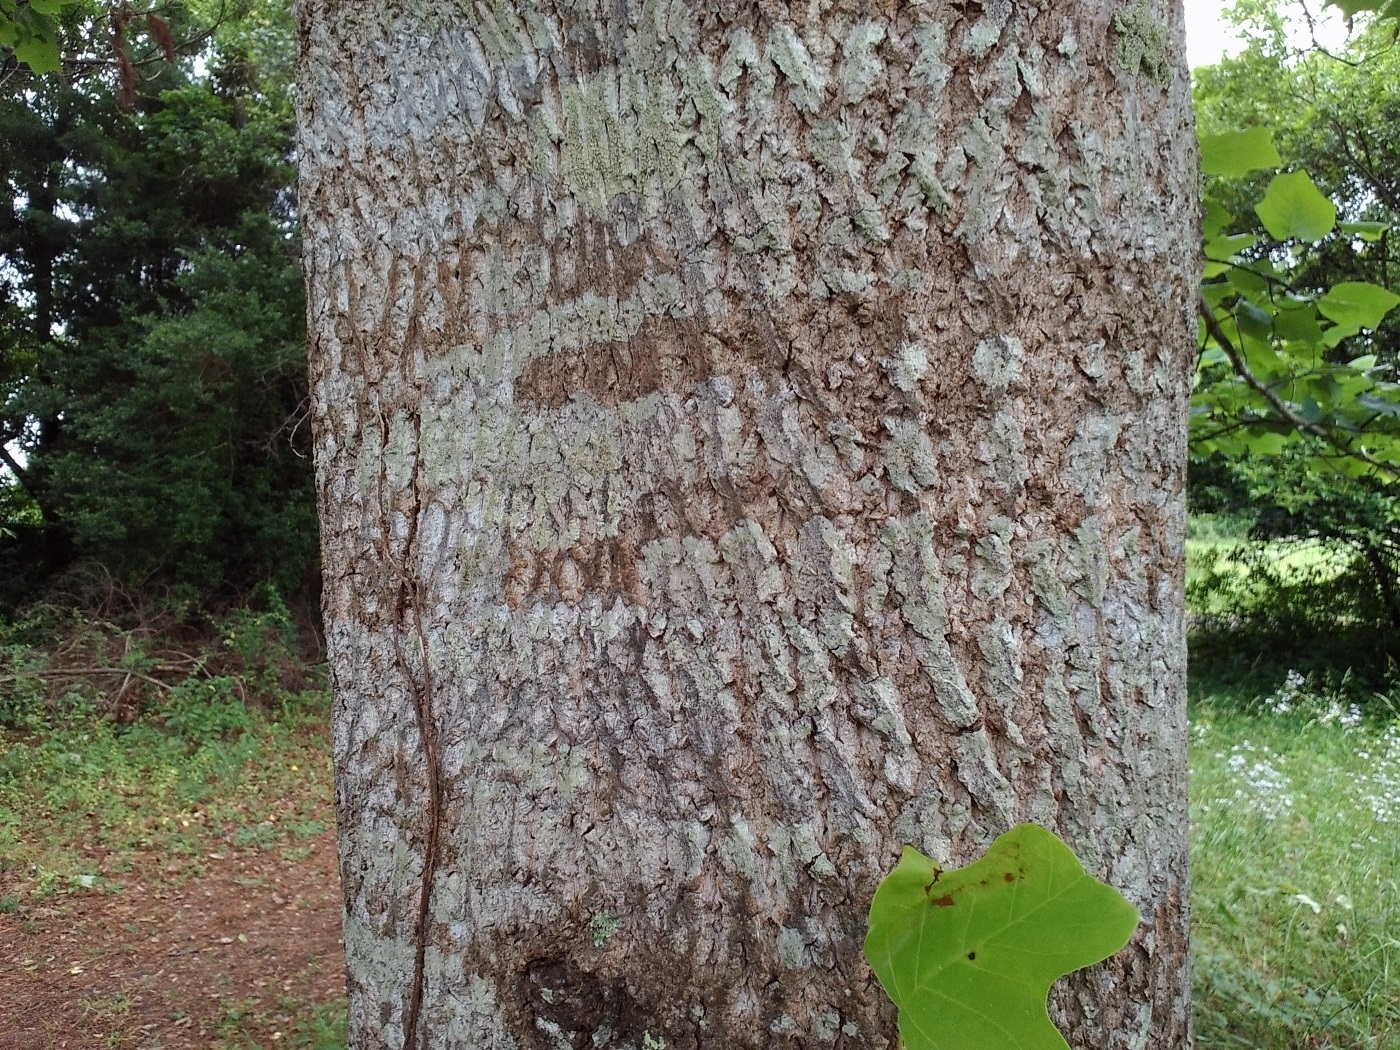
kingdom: Plantae
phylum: Tracheophyta
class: Magnoliopsida
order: Magnoliales
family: Magnoliaceae
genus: Liriodendron
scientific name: Liriodendron tulipifera
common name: Tulip tree
